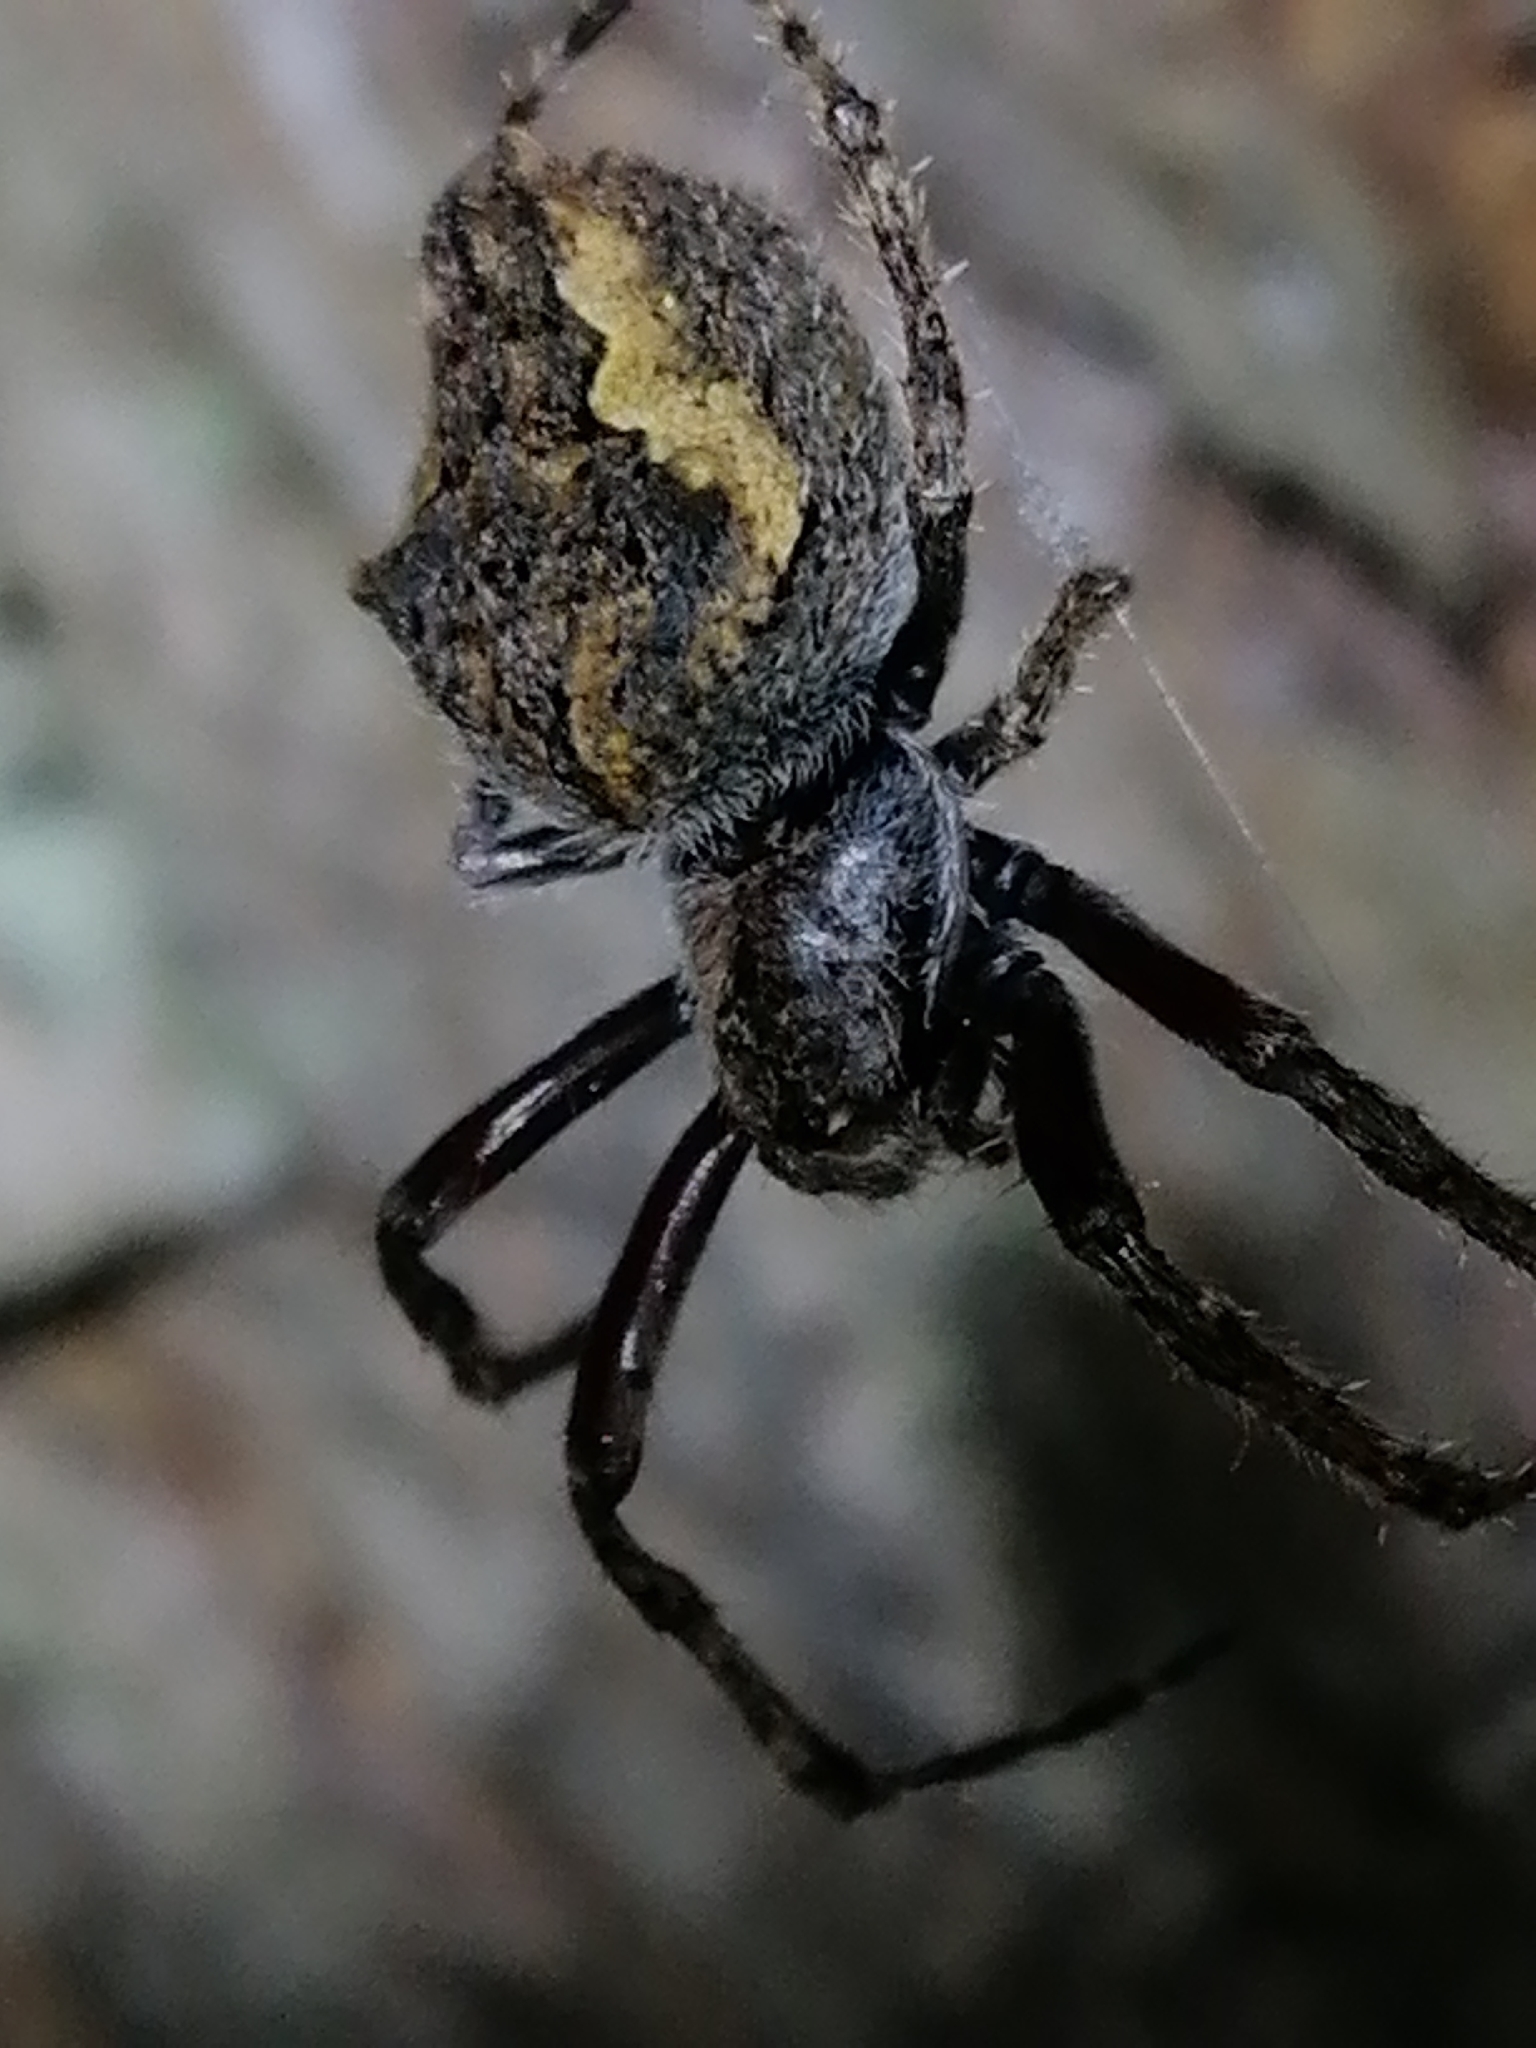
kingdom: Animalia
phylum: Arthropoda
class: Arachnida
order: Araneae
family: Araneidae
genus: Eriophora
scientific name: Eriophora pustulosa
